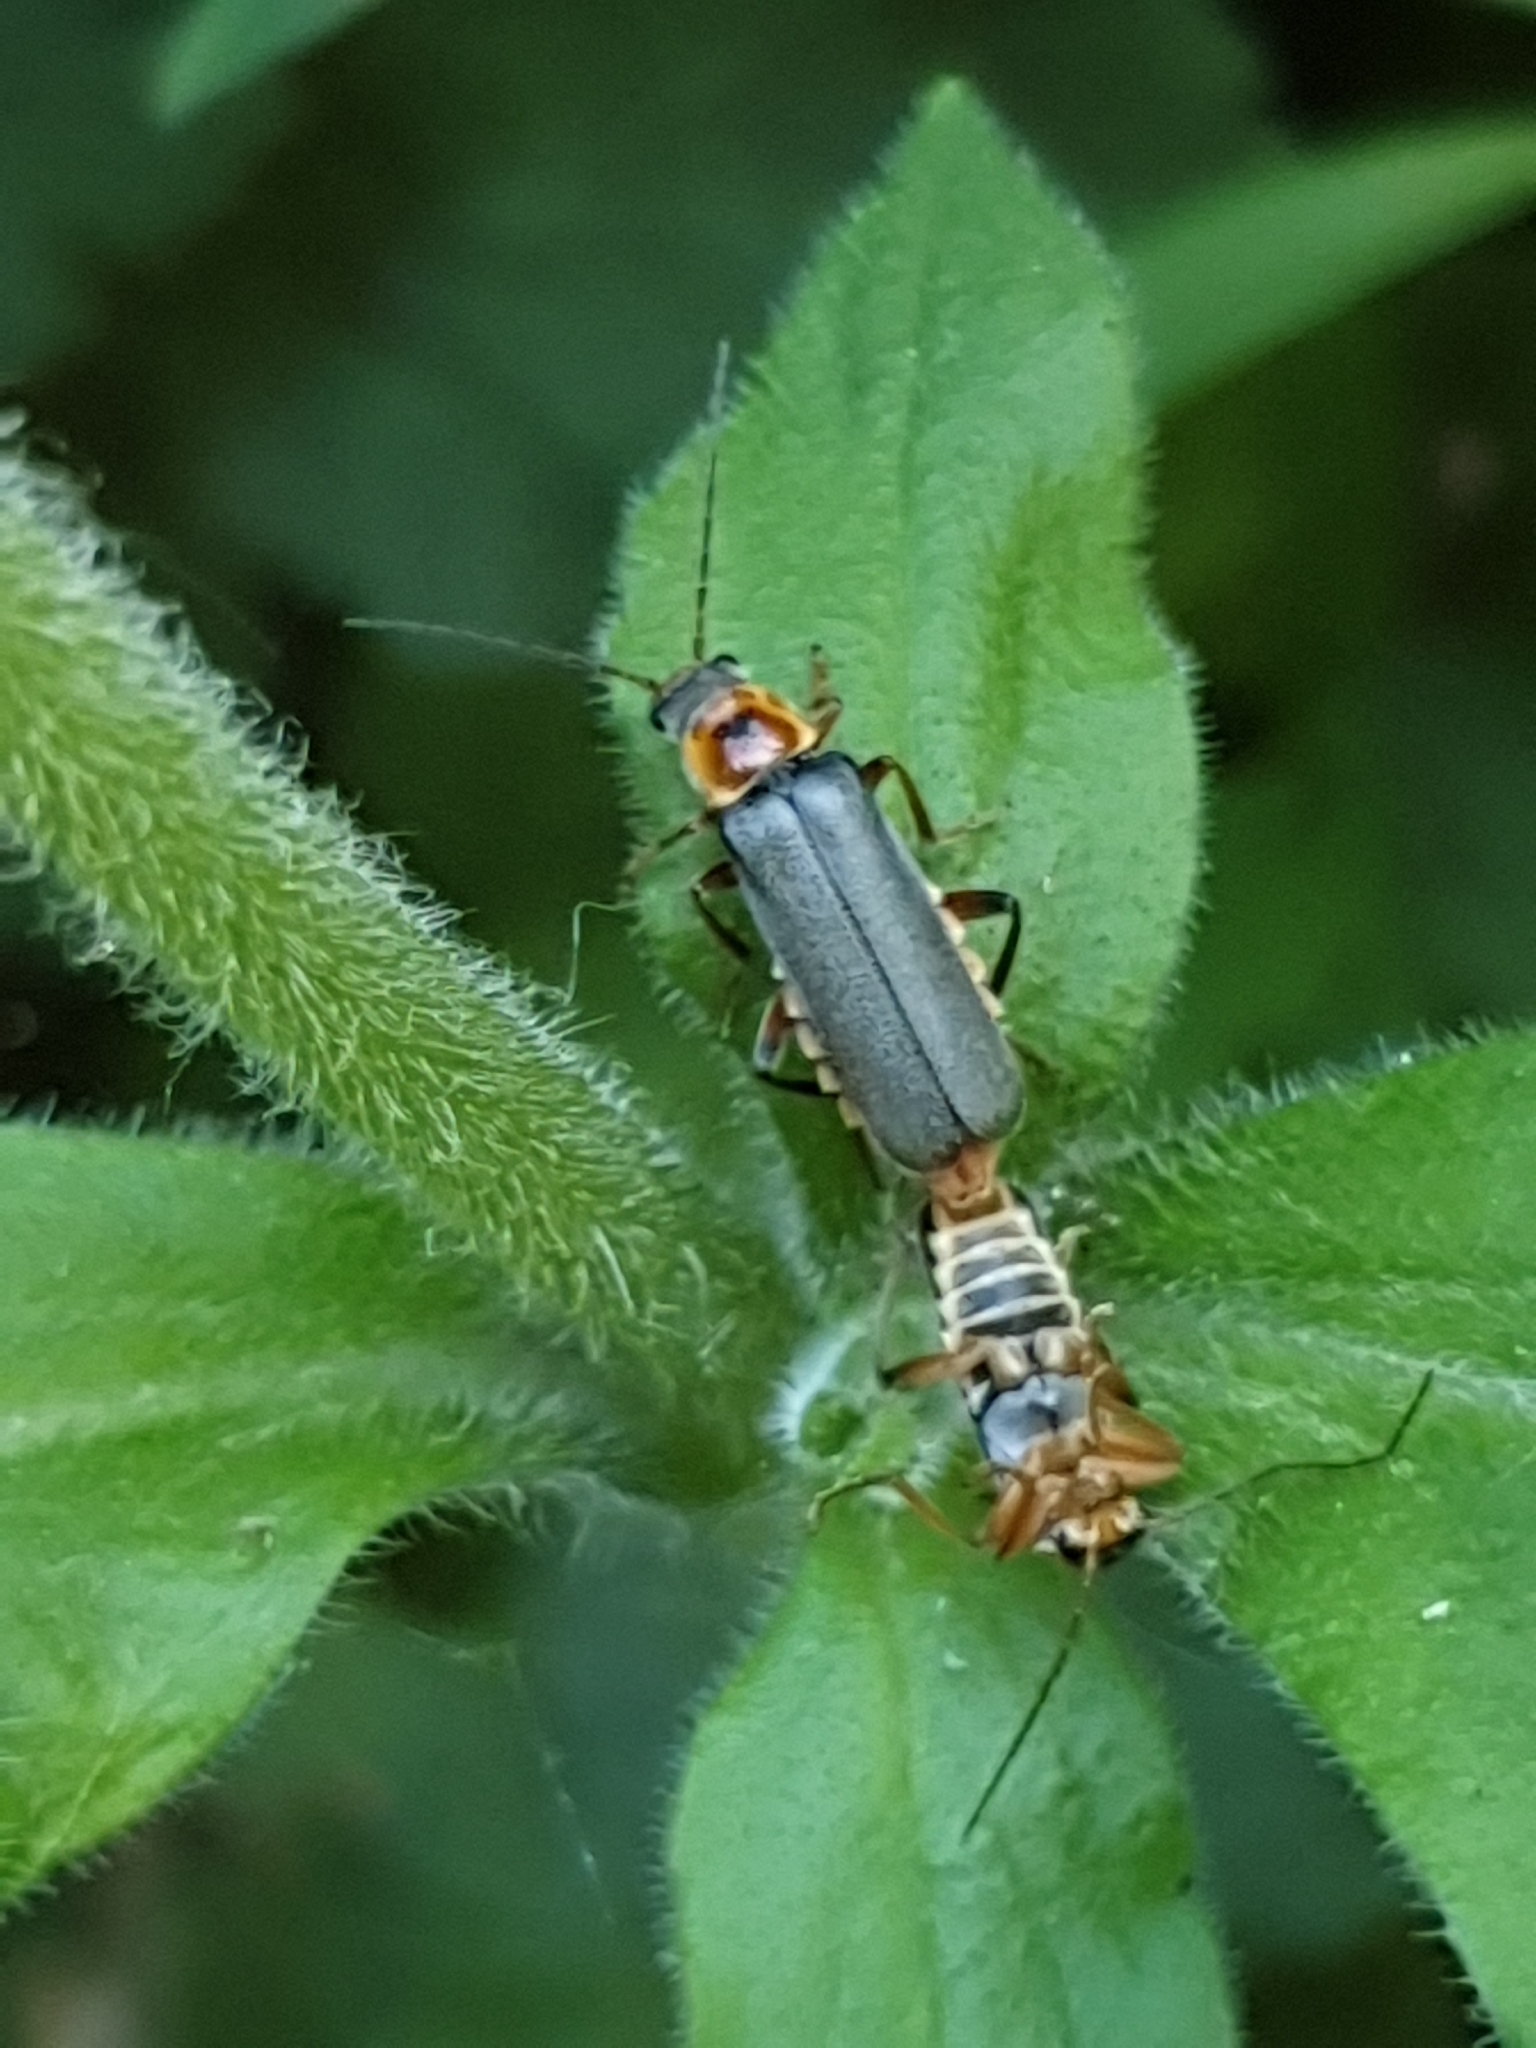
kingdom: Animalia
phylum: Arthropoda
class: Insecta
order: Coleoptera
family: Cantharidae
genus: Cantharis
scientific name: Cantharis nigricans
